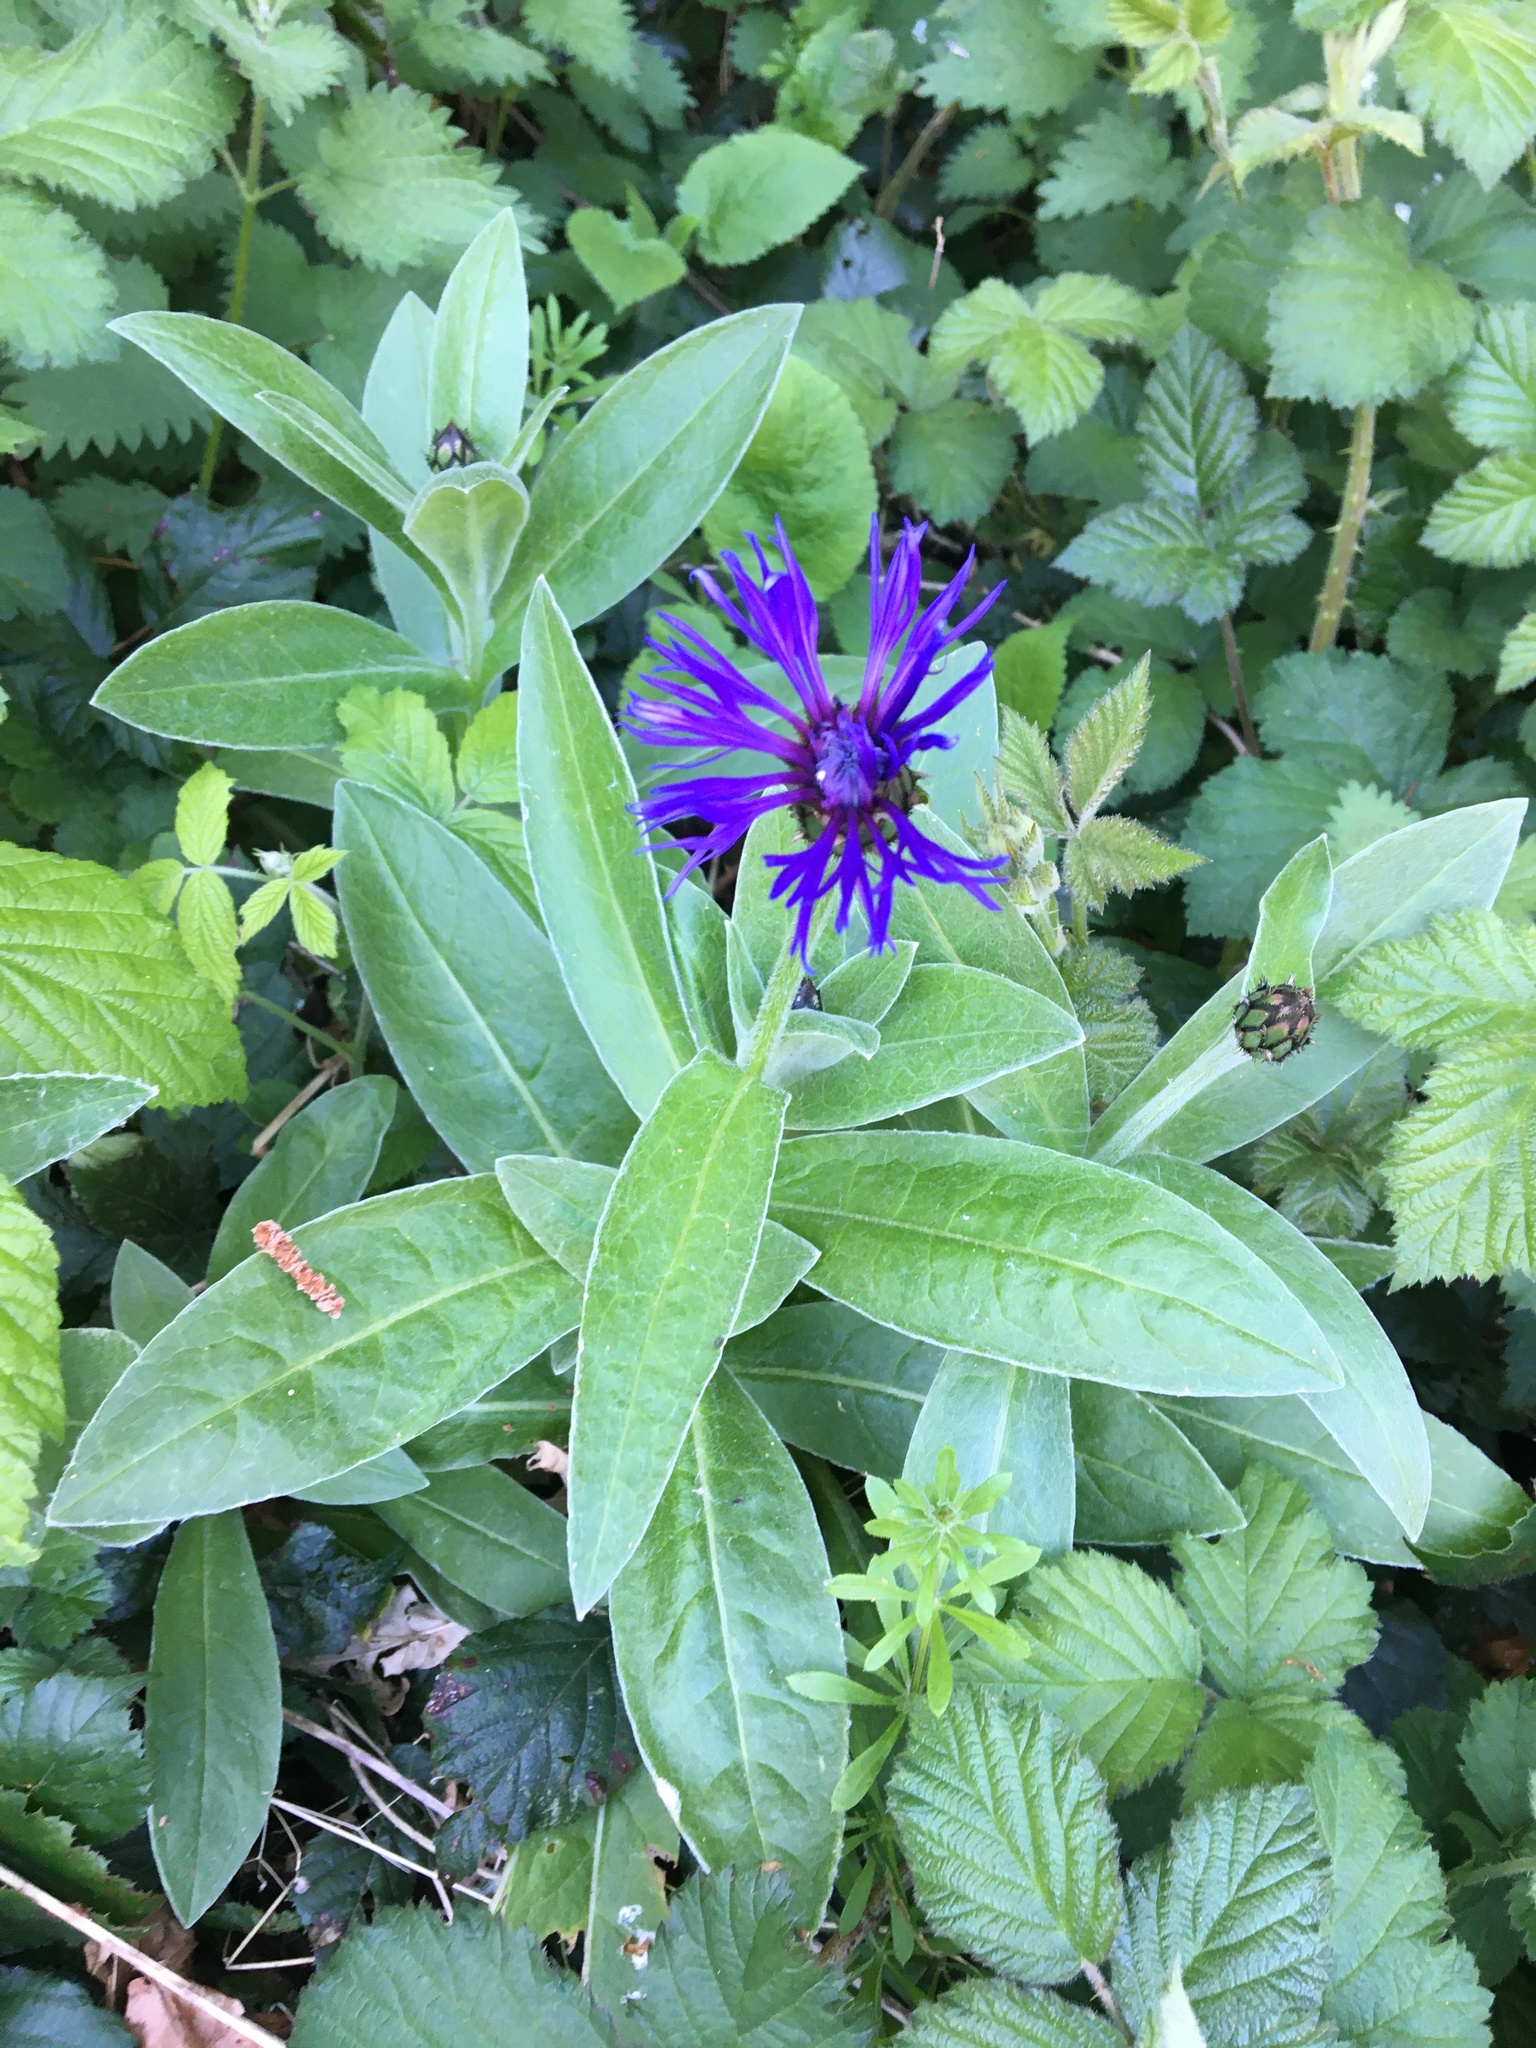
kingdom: Plantae
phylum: Tracheophyta
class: Magnoliopsida
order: Asterales
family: Asteraceae
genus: Centaurea
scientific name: Centaurea montana
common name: Perennial cornflower
